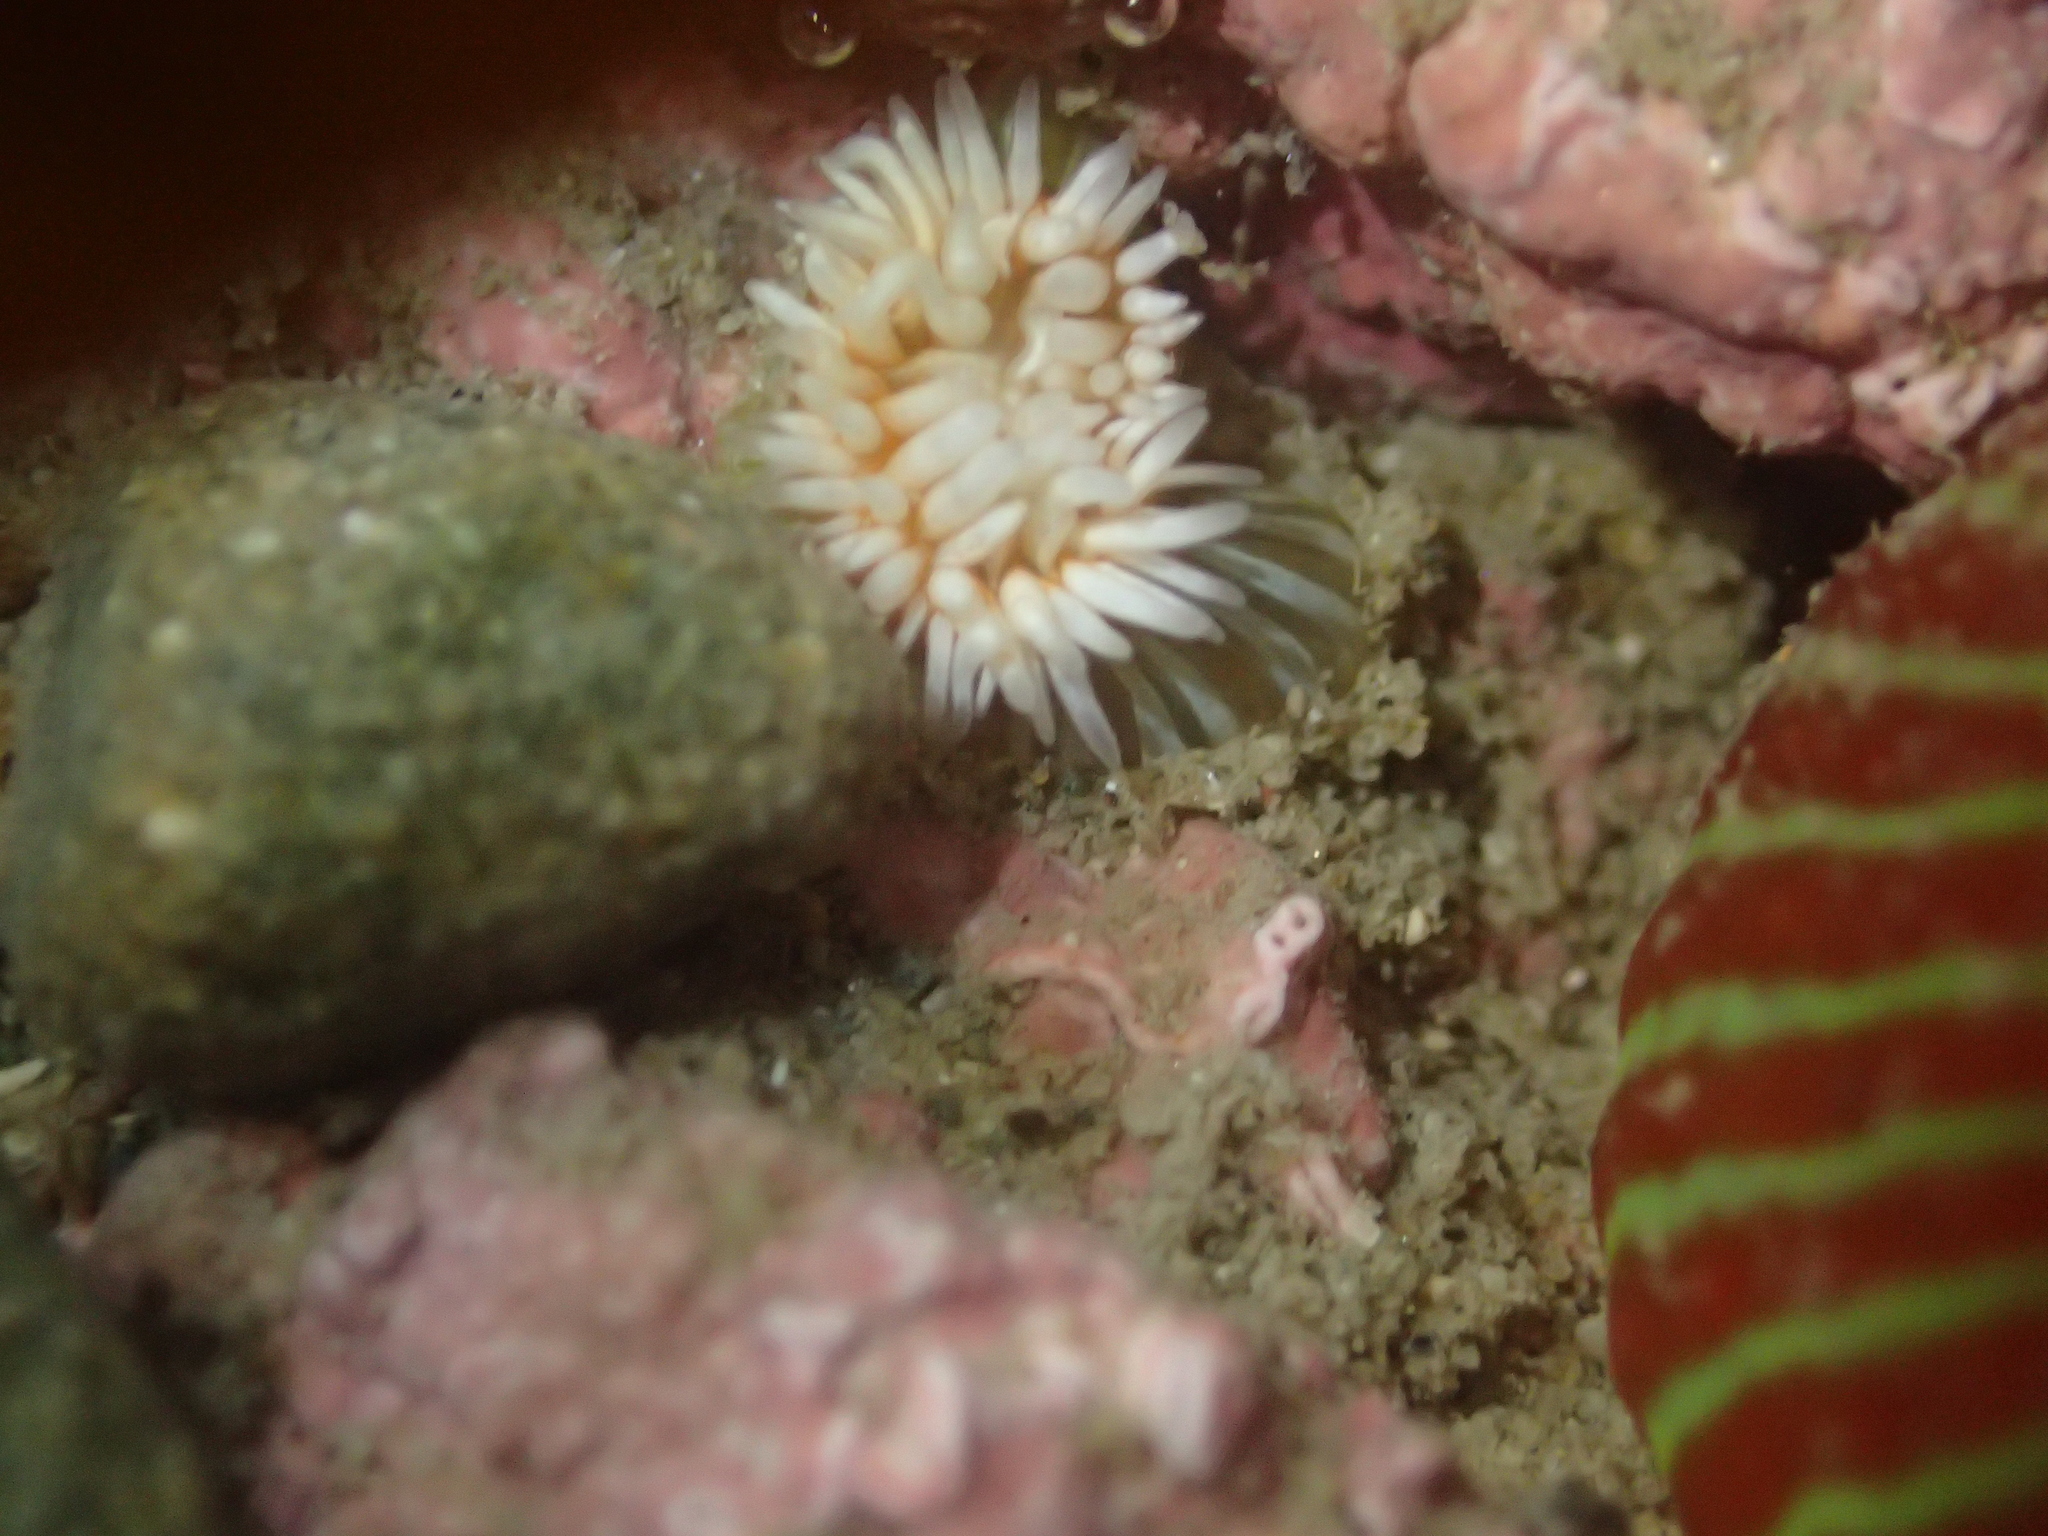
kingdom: Animalia
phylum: Cnidaria
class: Anthozoa
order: Actiniaria
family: Sagartiidae
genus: Anthothoe
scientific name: Anthothoe albocincta
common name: Orange striped anemone
